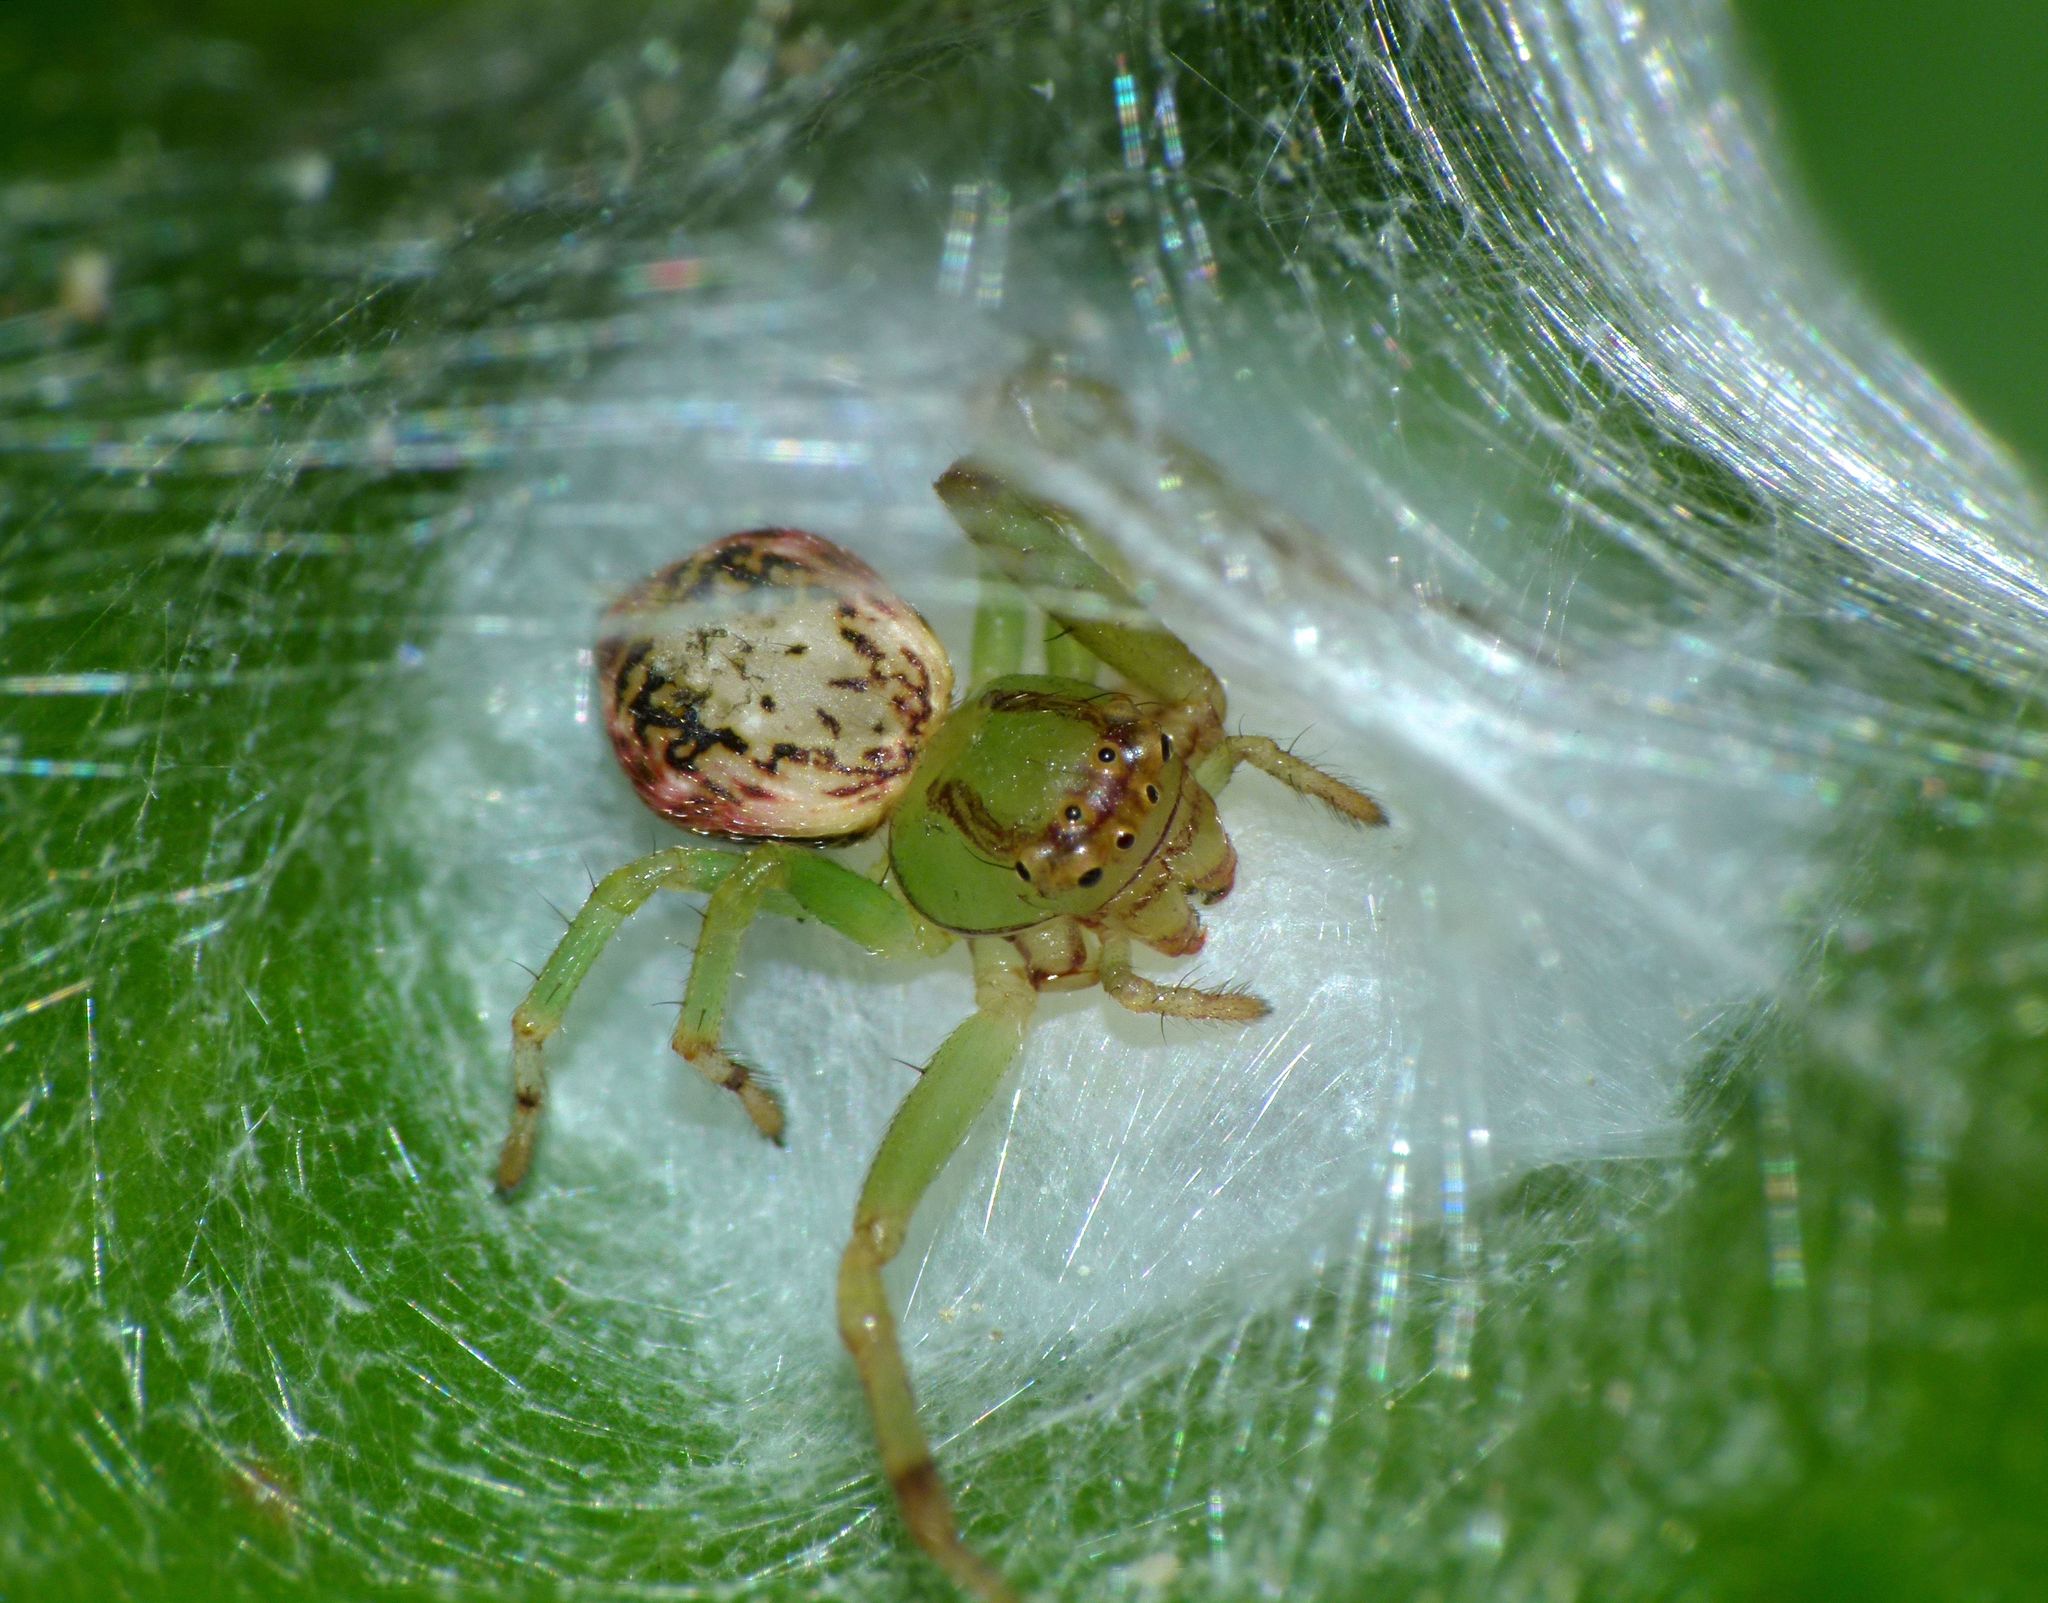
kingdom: Animalia
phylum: Arthropoda
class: Arachnida
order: Araneae
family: Thomisidae
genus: Diaea
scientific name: Diaea ambara
